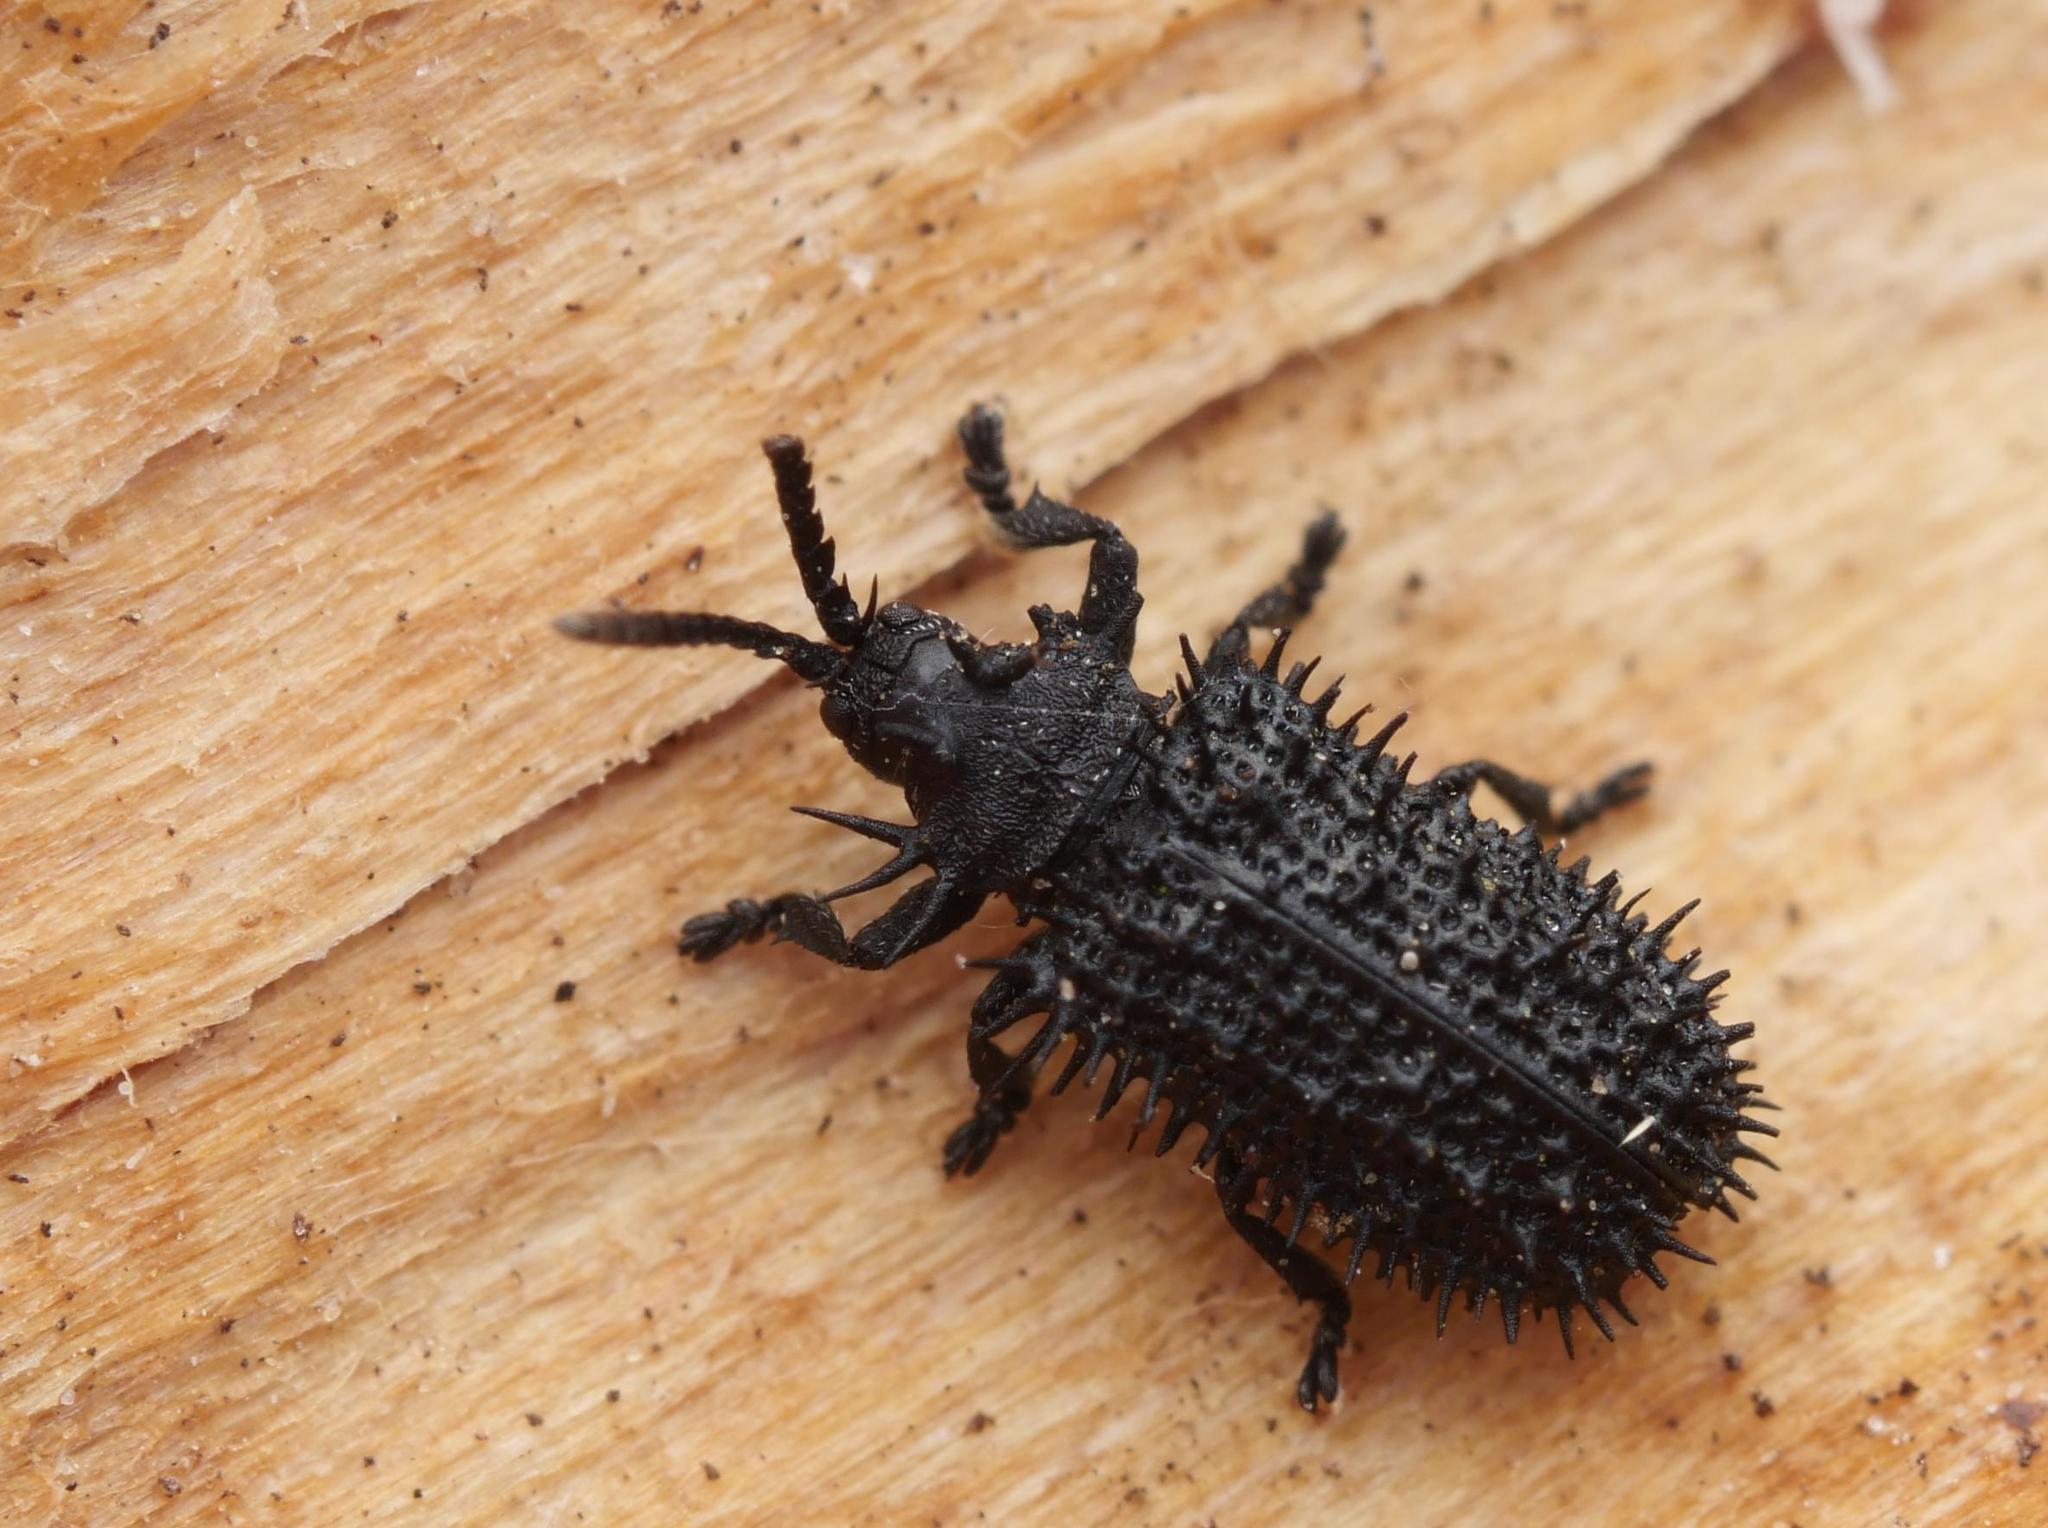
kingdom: Animalia
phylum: Arthropoda
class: Insecta
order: Coleoptera
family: Chrysomelidae
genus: Hispa
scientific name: Hispa atra
